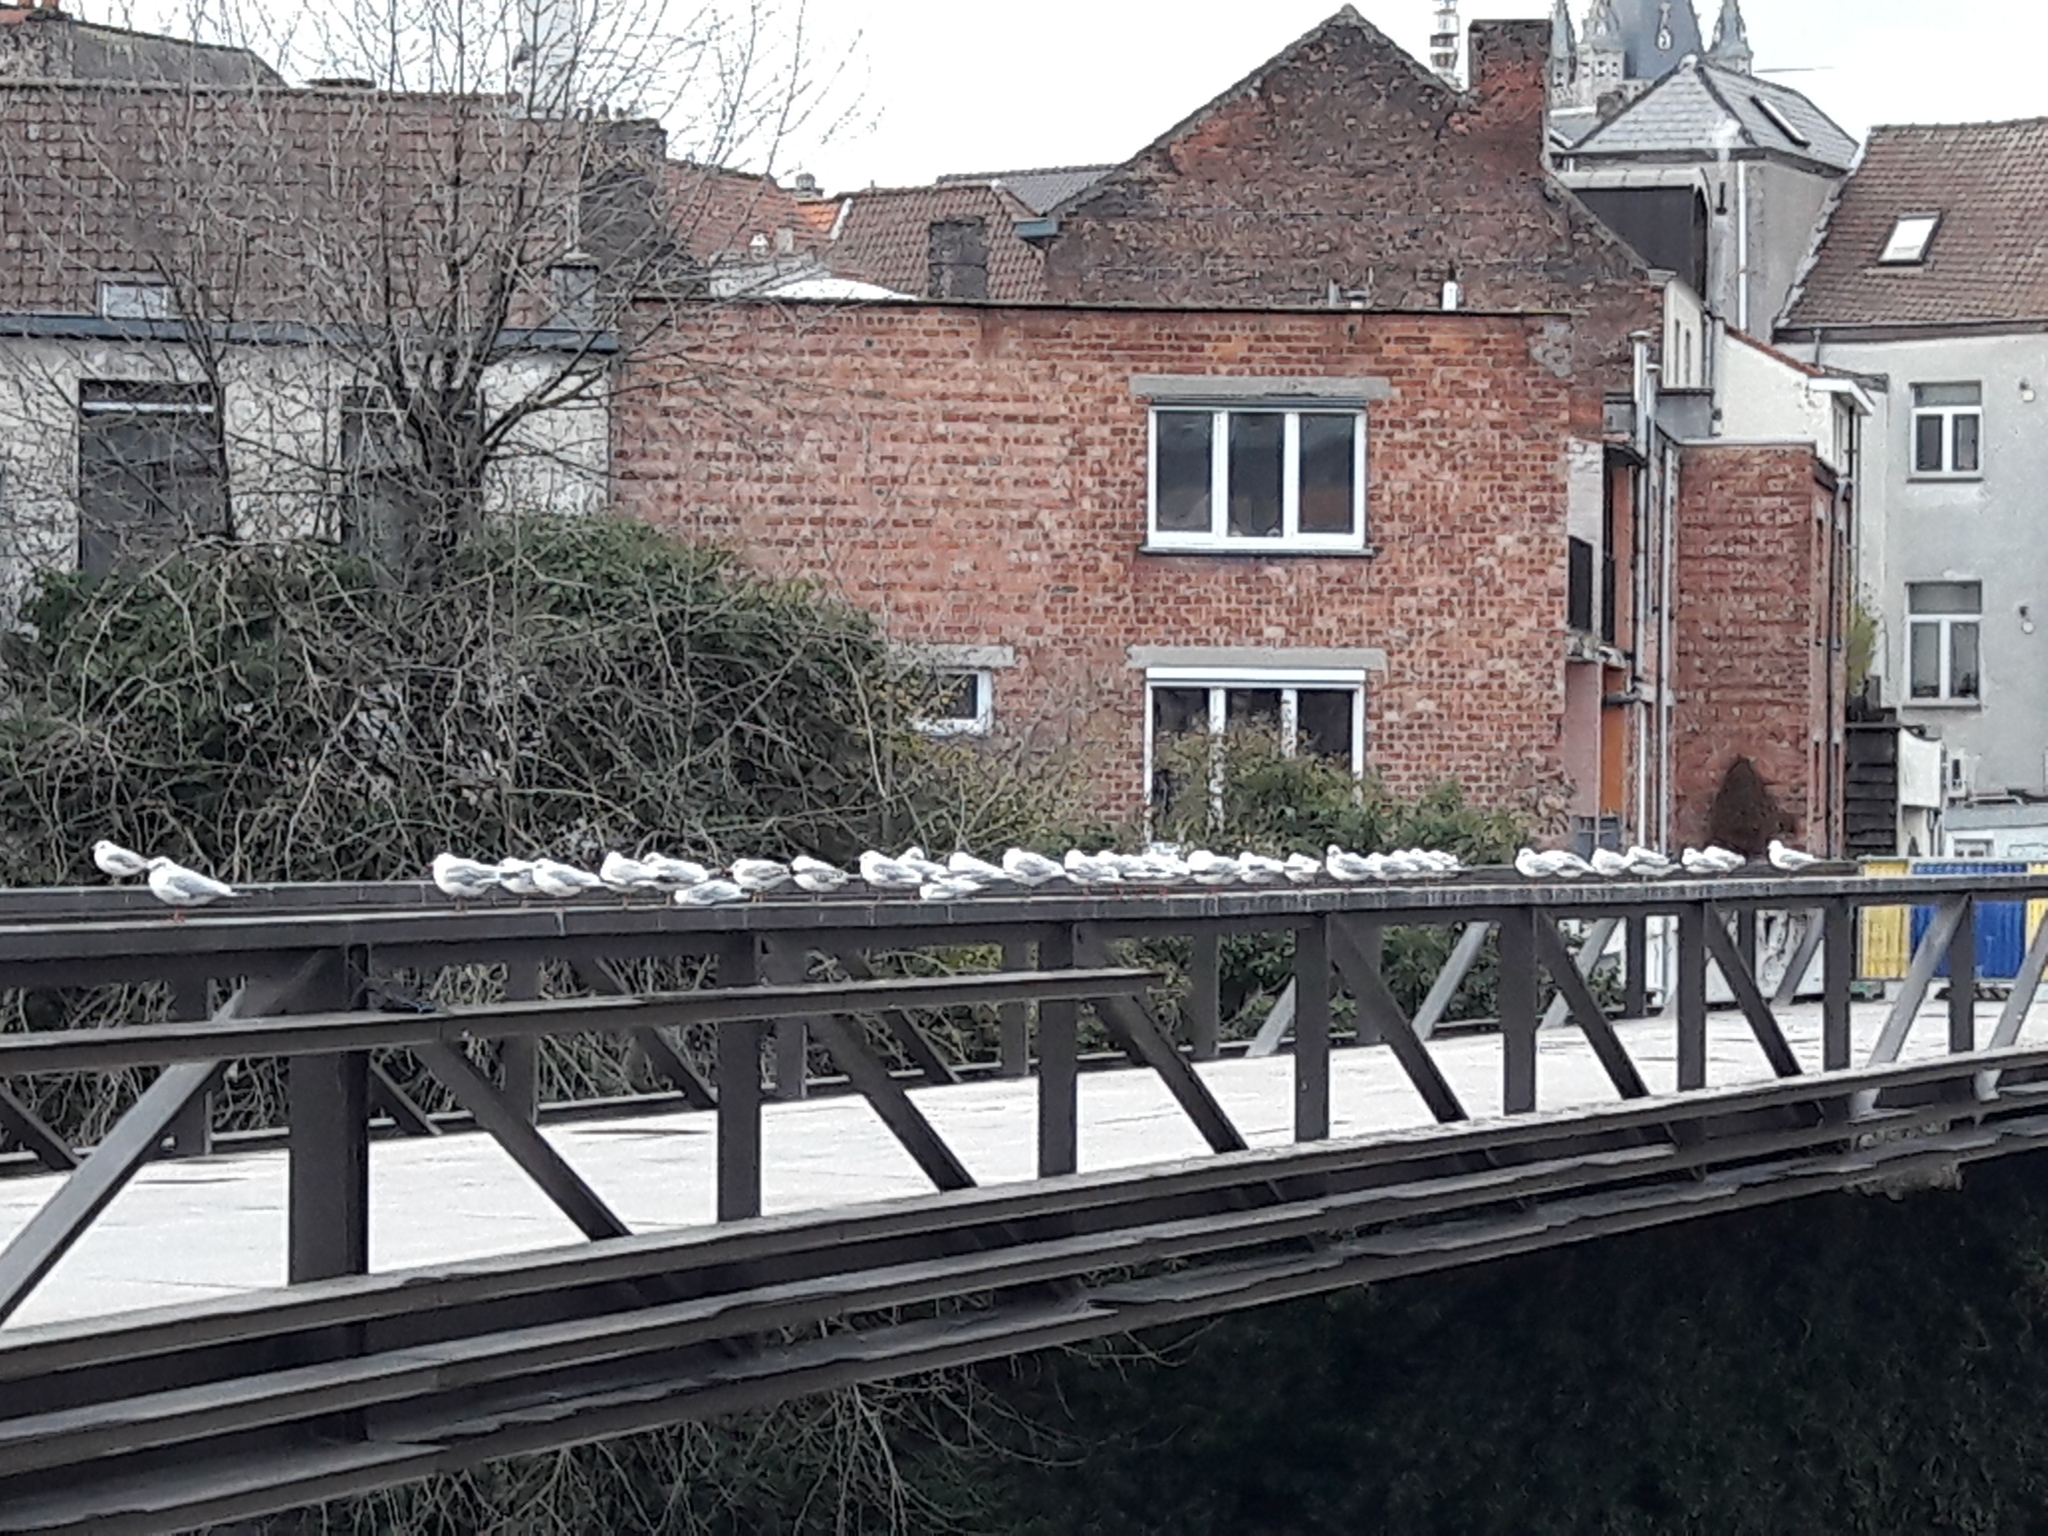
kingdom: Animalia
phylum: Chordata
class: Aves
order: Charadriiformes
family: Laridae
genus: Chroicocephalus
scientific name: Chroicocephalus ridibundus
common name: Black-headed gull
